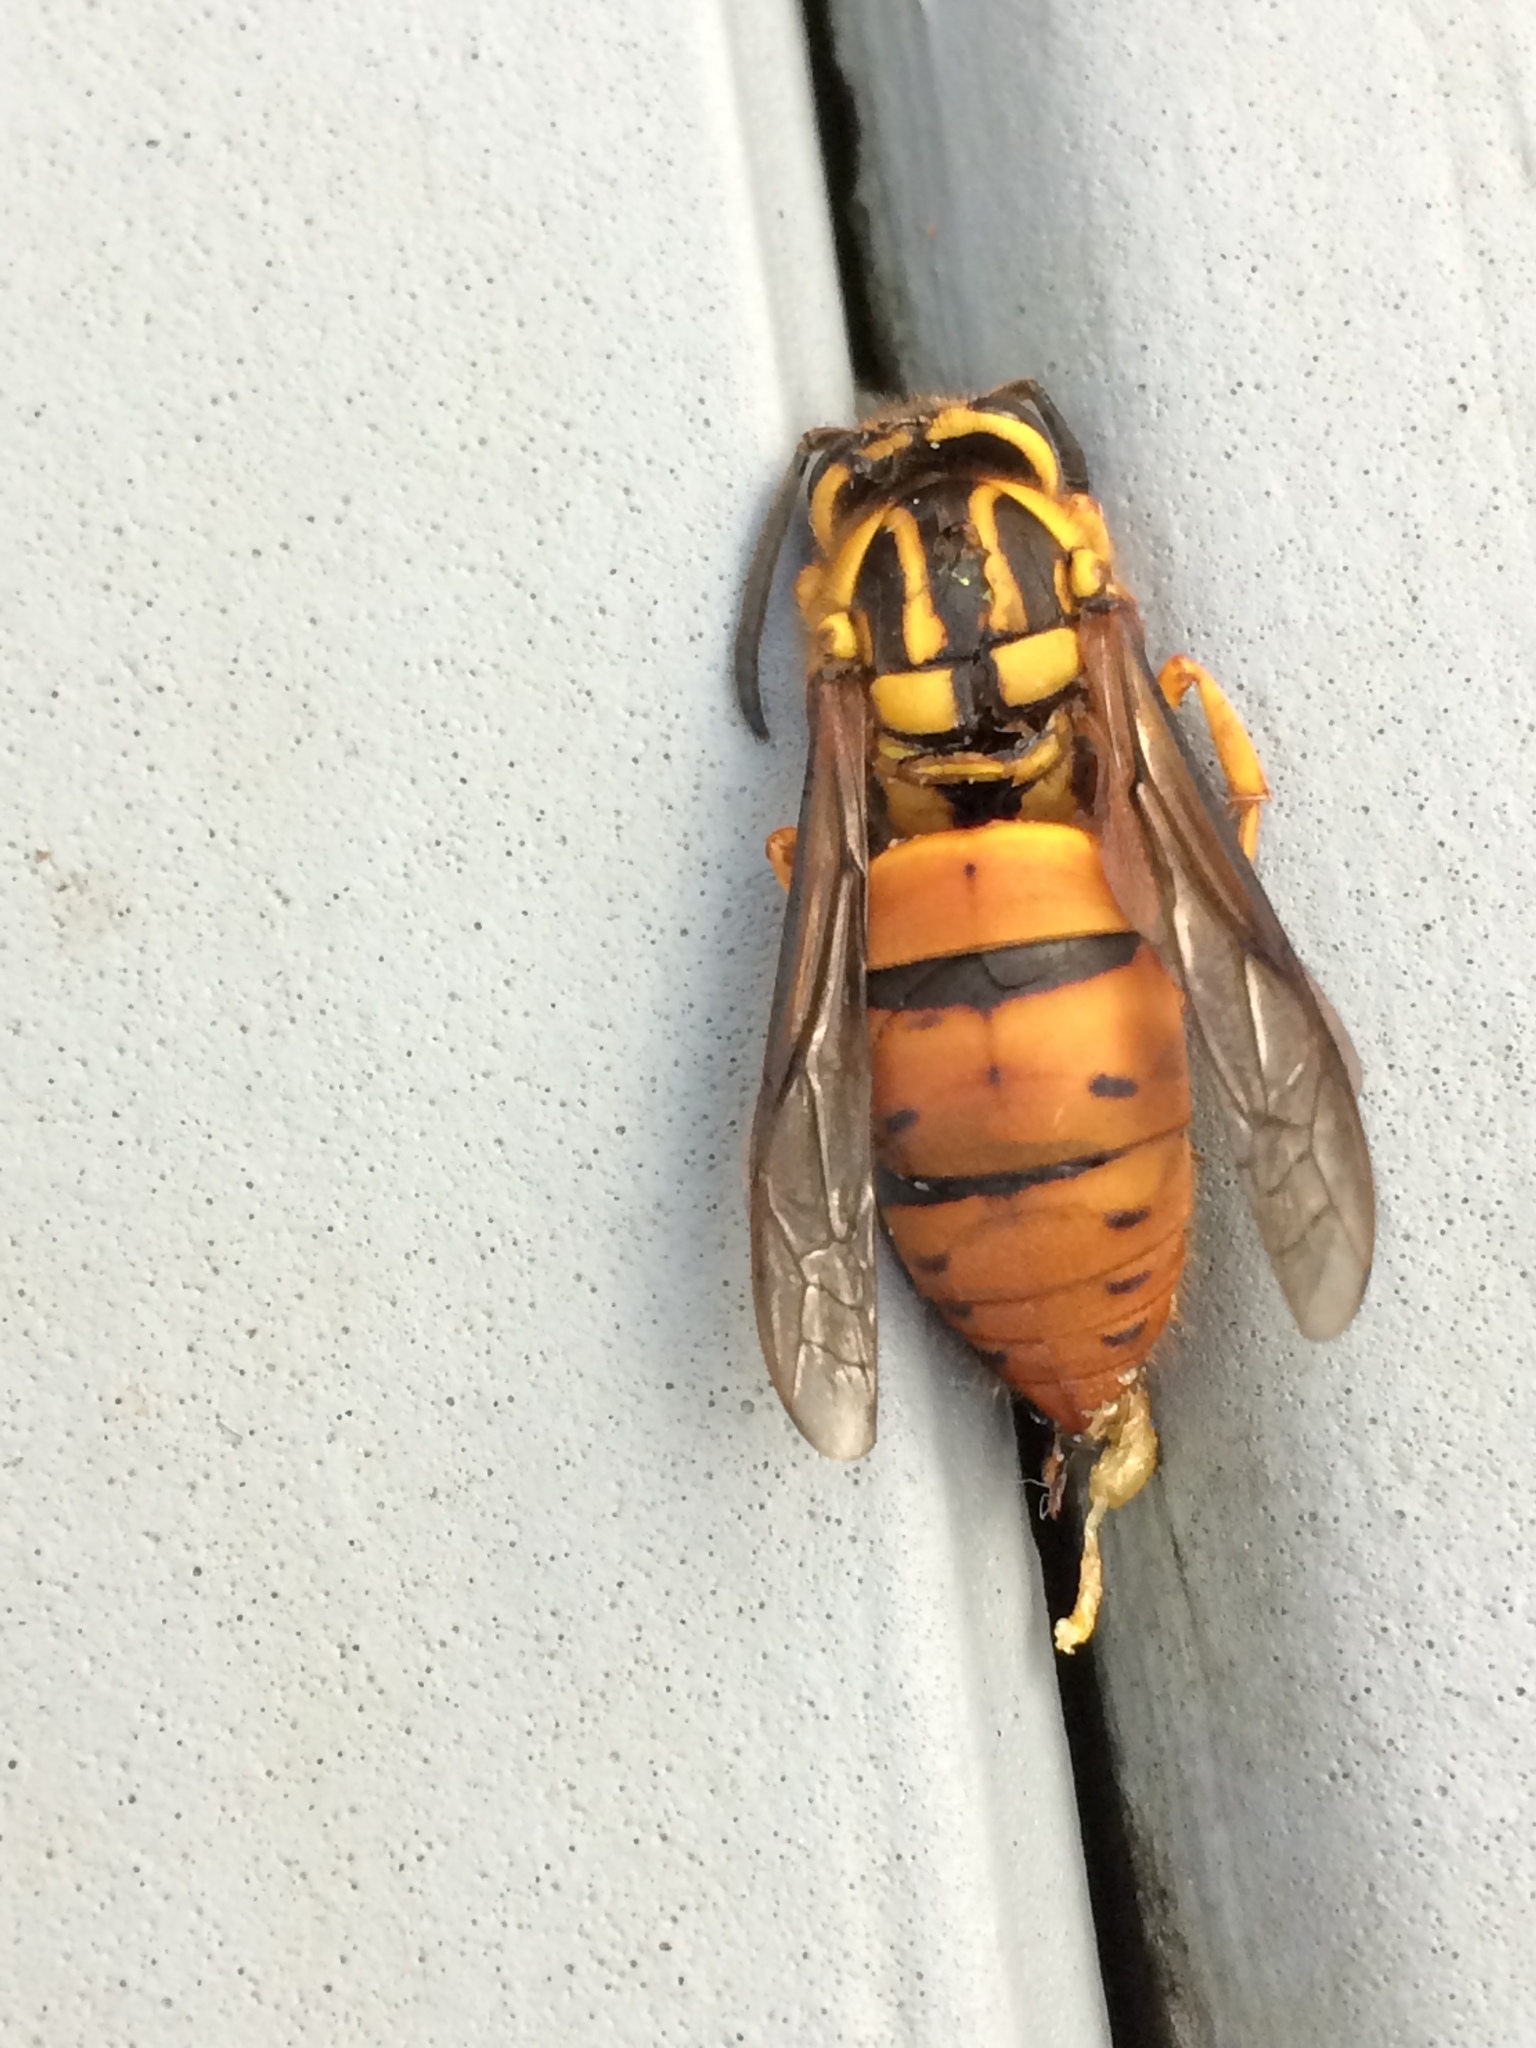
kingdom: Animalia
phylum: Arthropoda
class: Insecta
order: Hymenoptera
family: Vespidae
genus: Vespula
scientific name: Vespula squamosa
